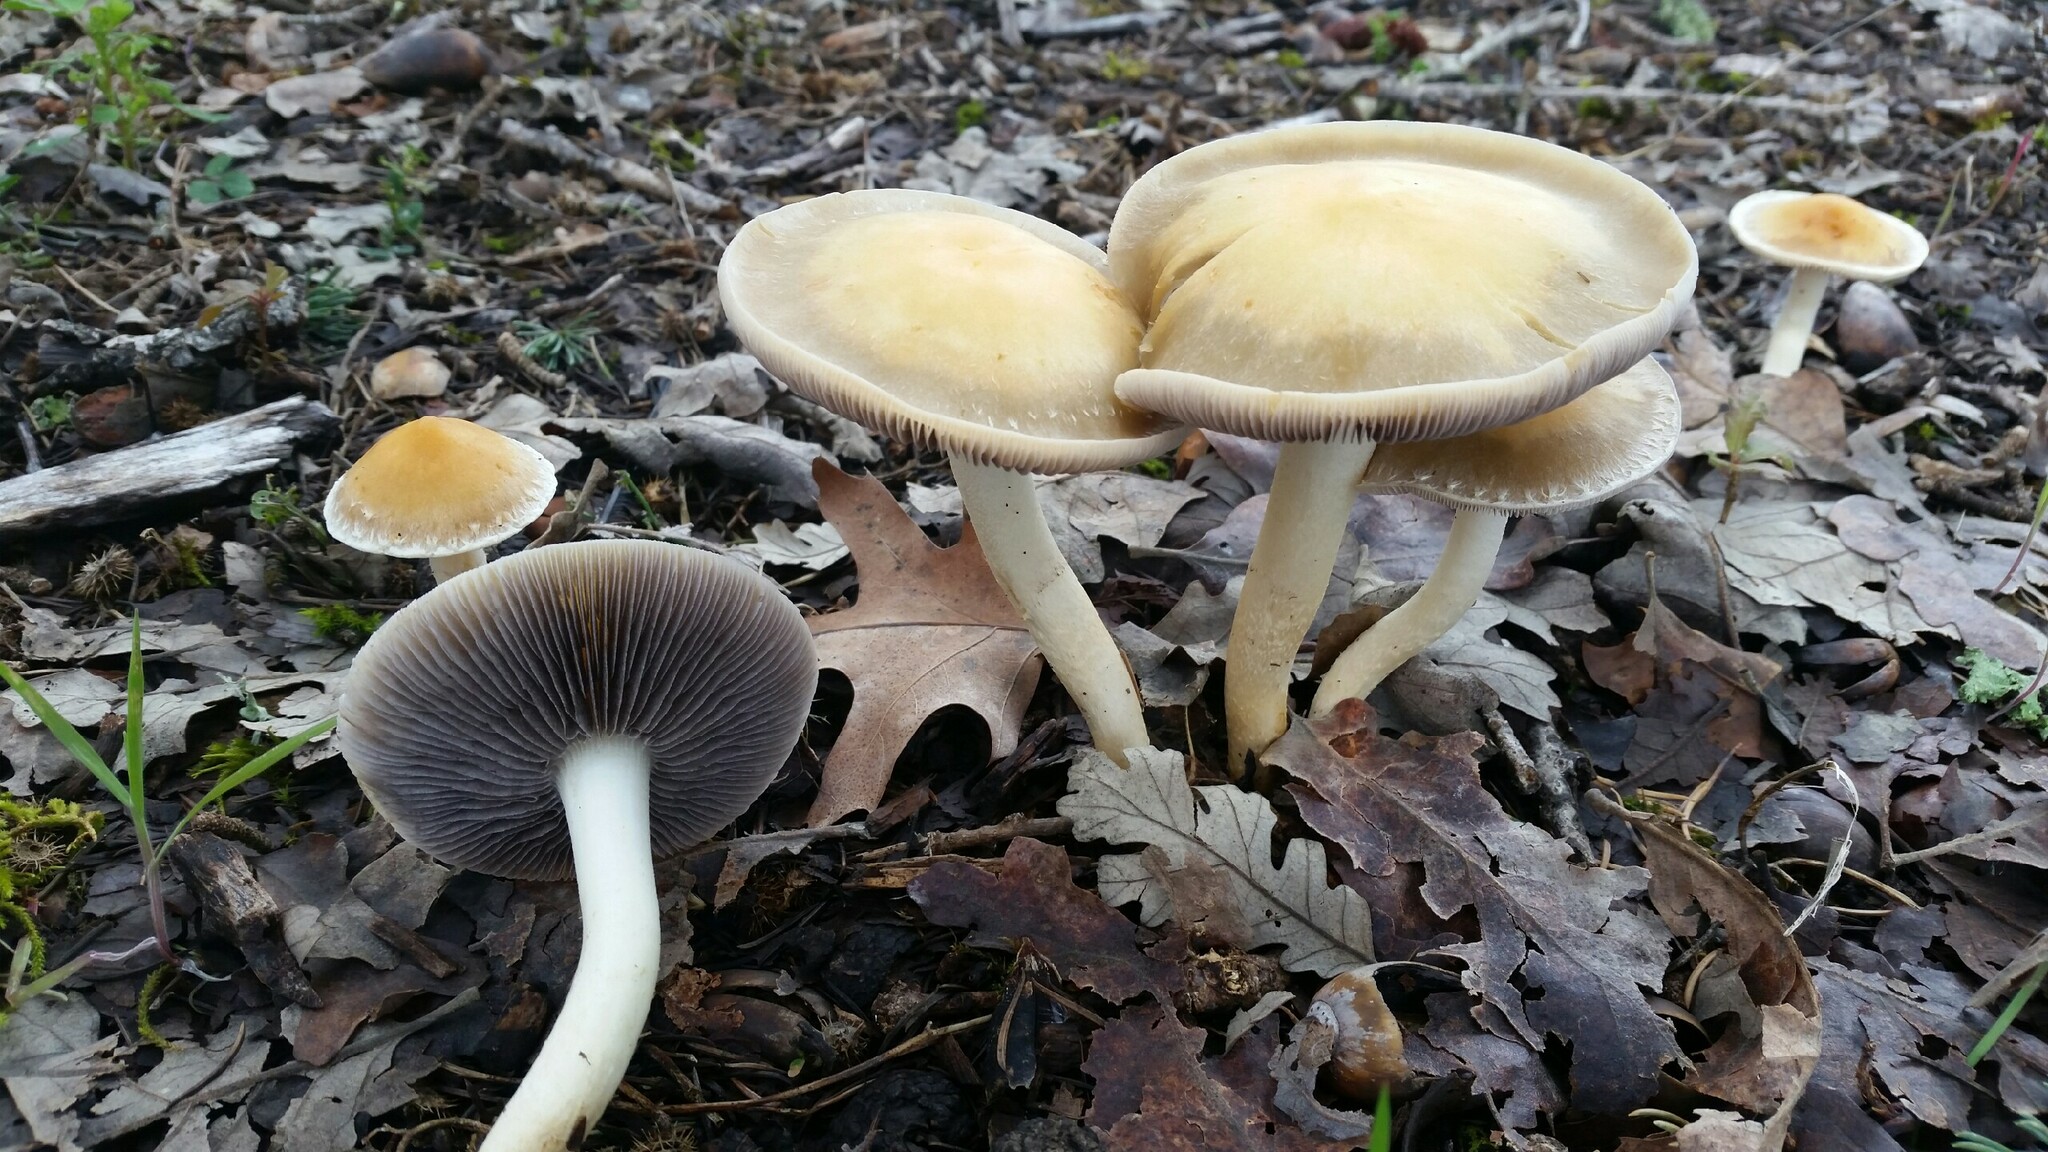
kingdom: Fungi
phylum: Basidiomycota
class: Agaricomycetes
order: Agaricales
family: Strophariaceae
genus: Leratiomyces
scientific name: Leratiomyces percevalii
